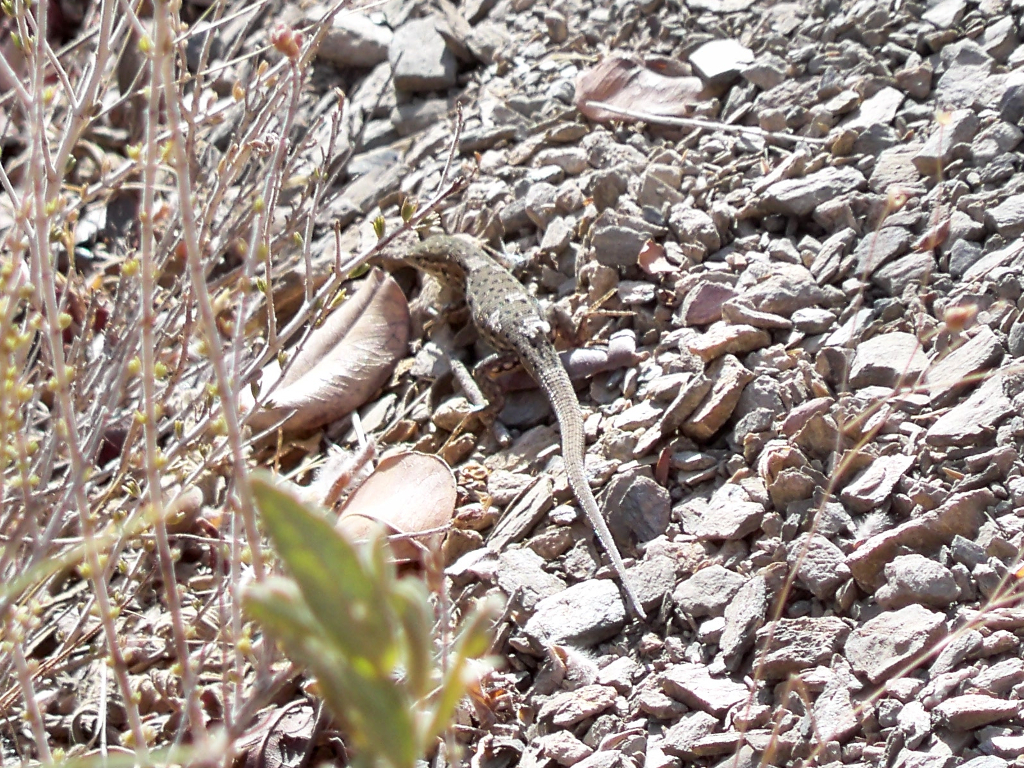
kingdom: Animalia
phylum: Chordata
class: Squamata
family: Lacertidae
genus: Psammodromus
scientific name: Psammodromus hispanicus
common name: Spanish psammodromus
